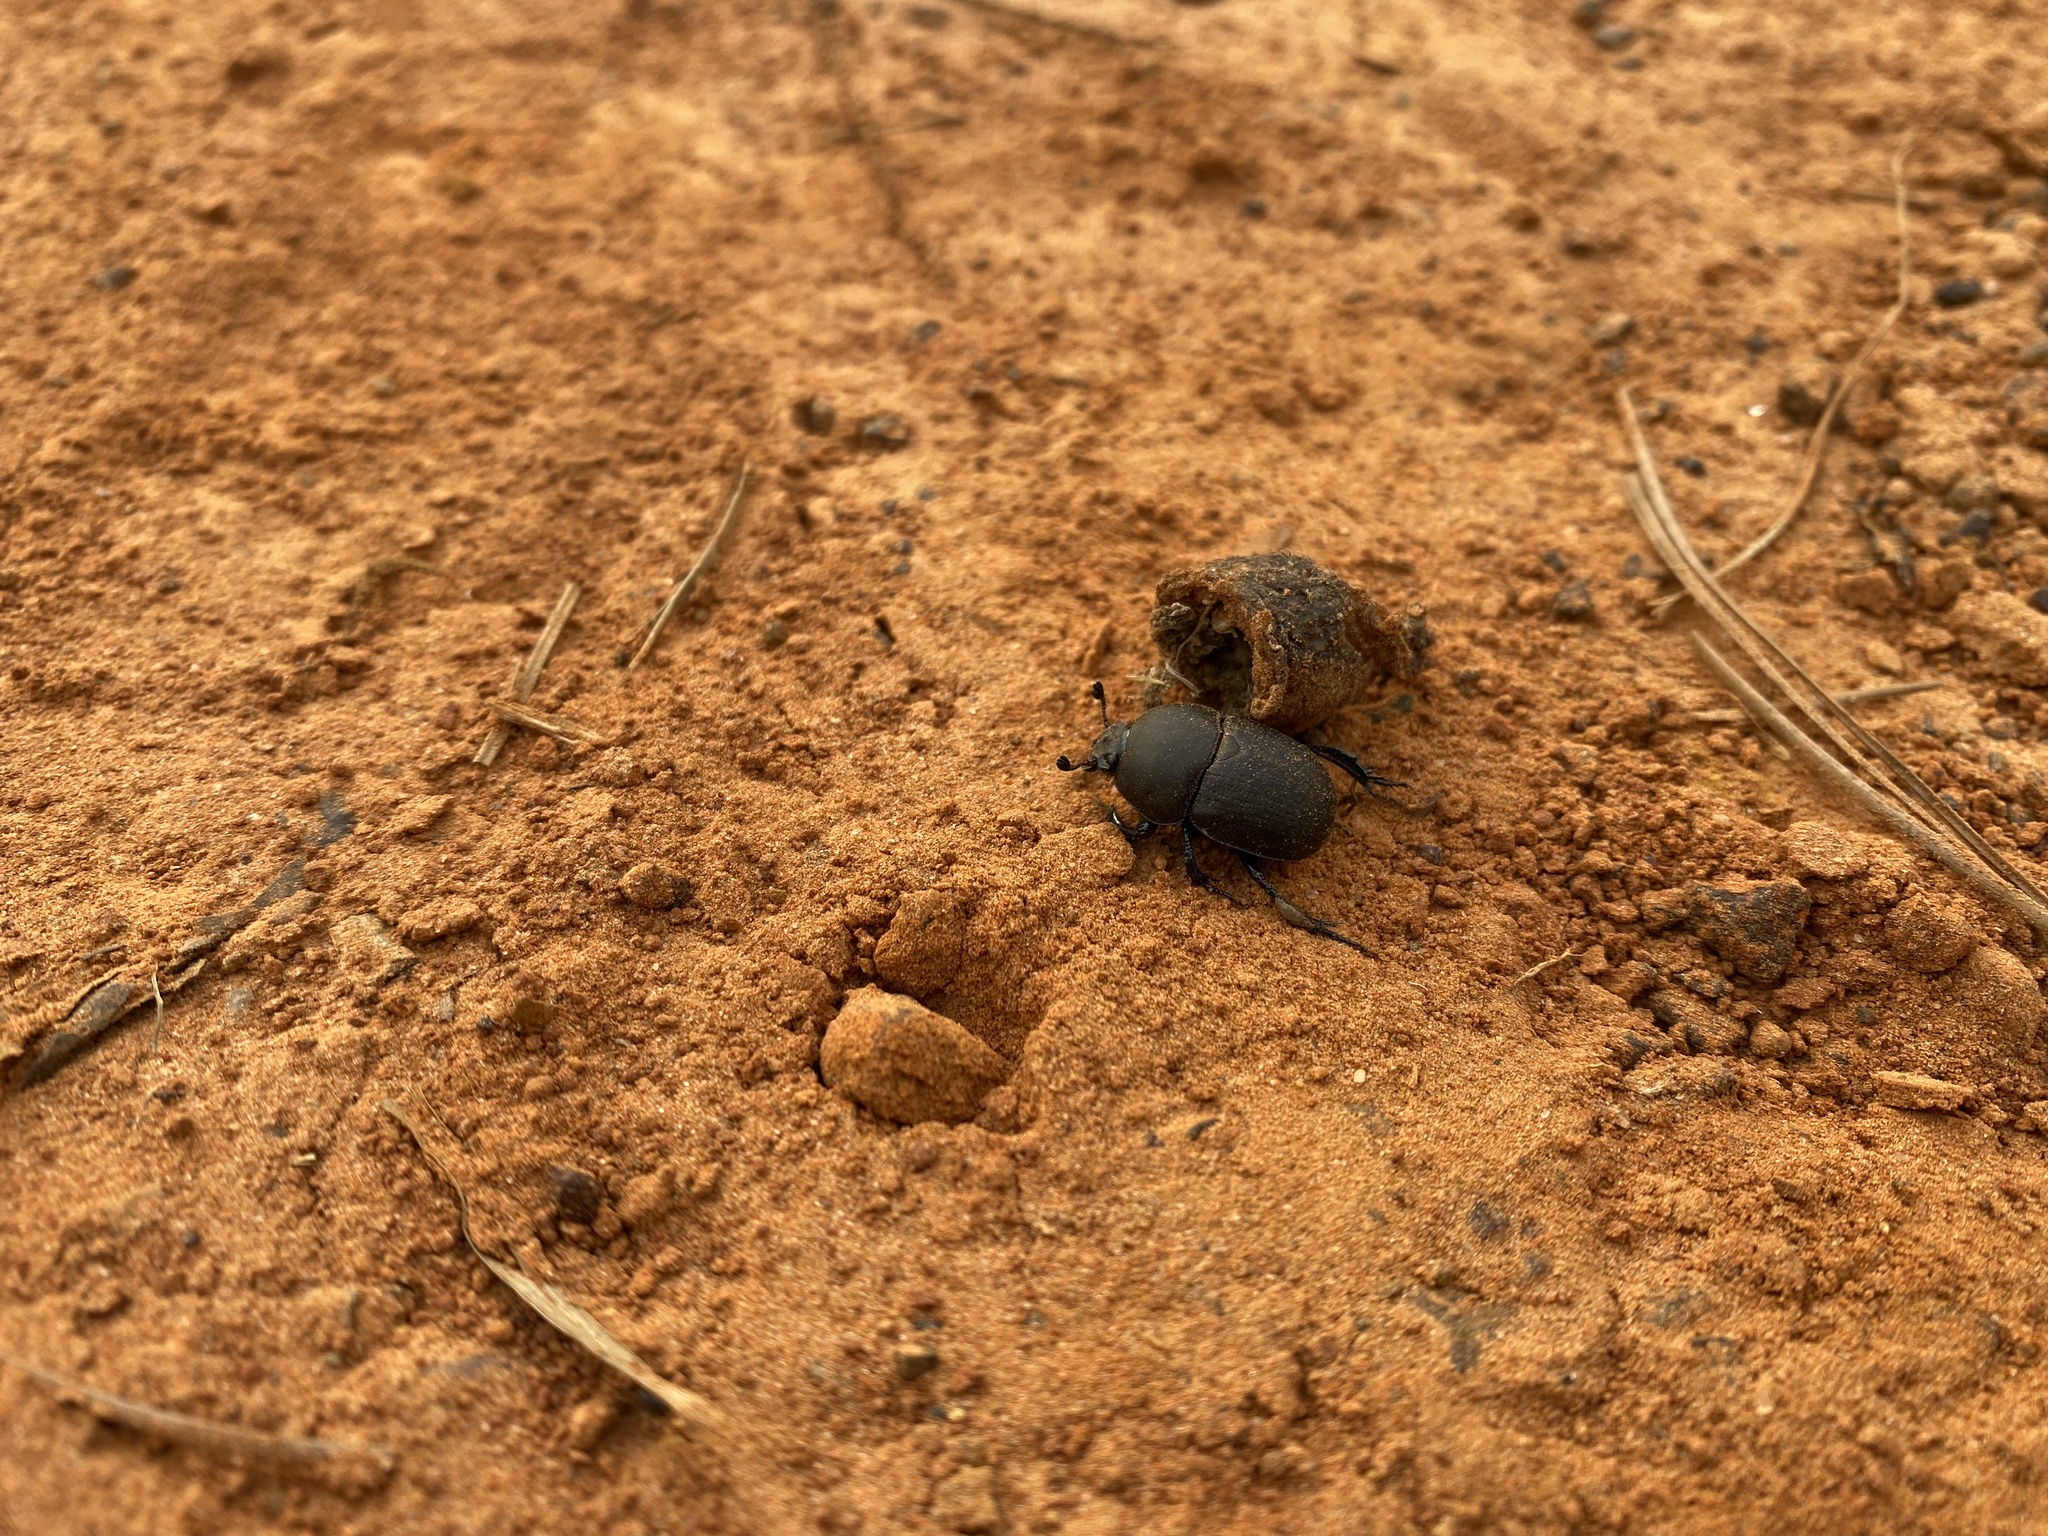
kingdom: Animalia
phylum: Arthropoda
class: Insecta
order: Coleoptera
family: Geotrupidae
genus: Geohowdenius
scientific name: Geohowdenius opacus
